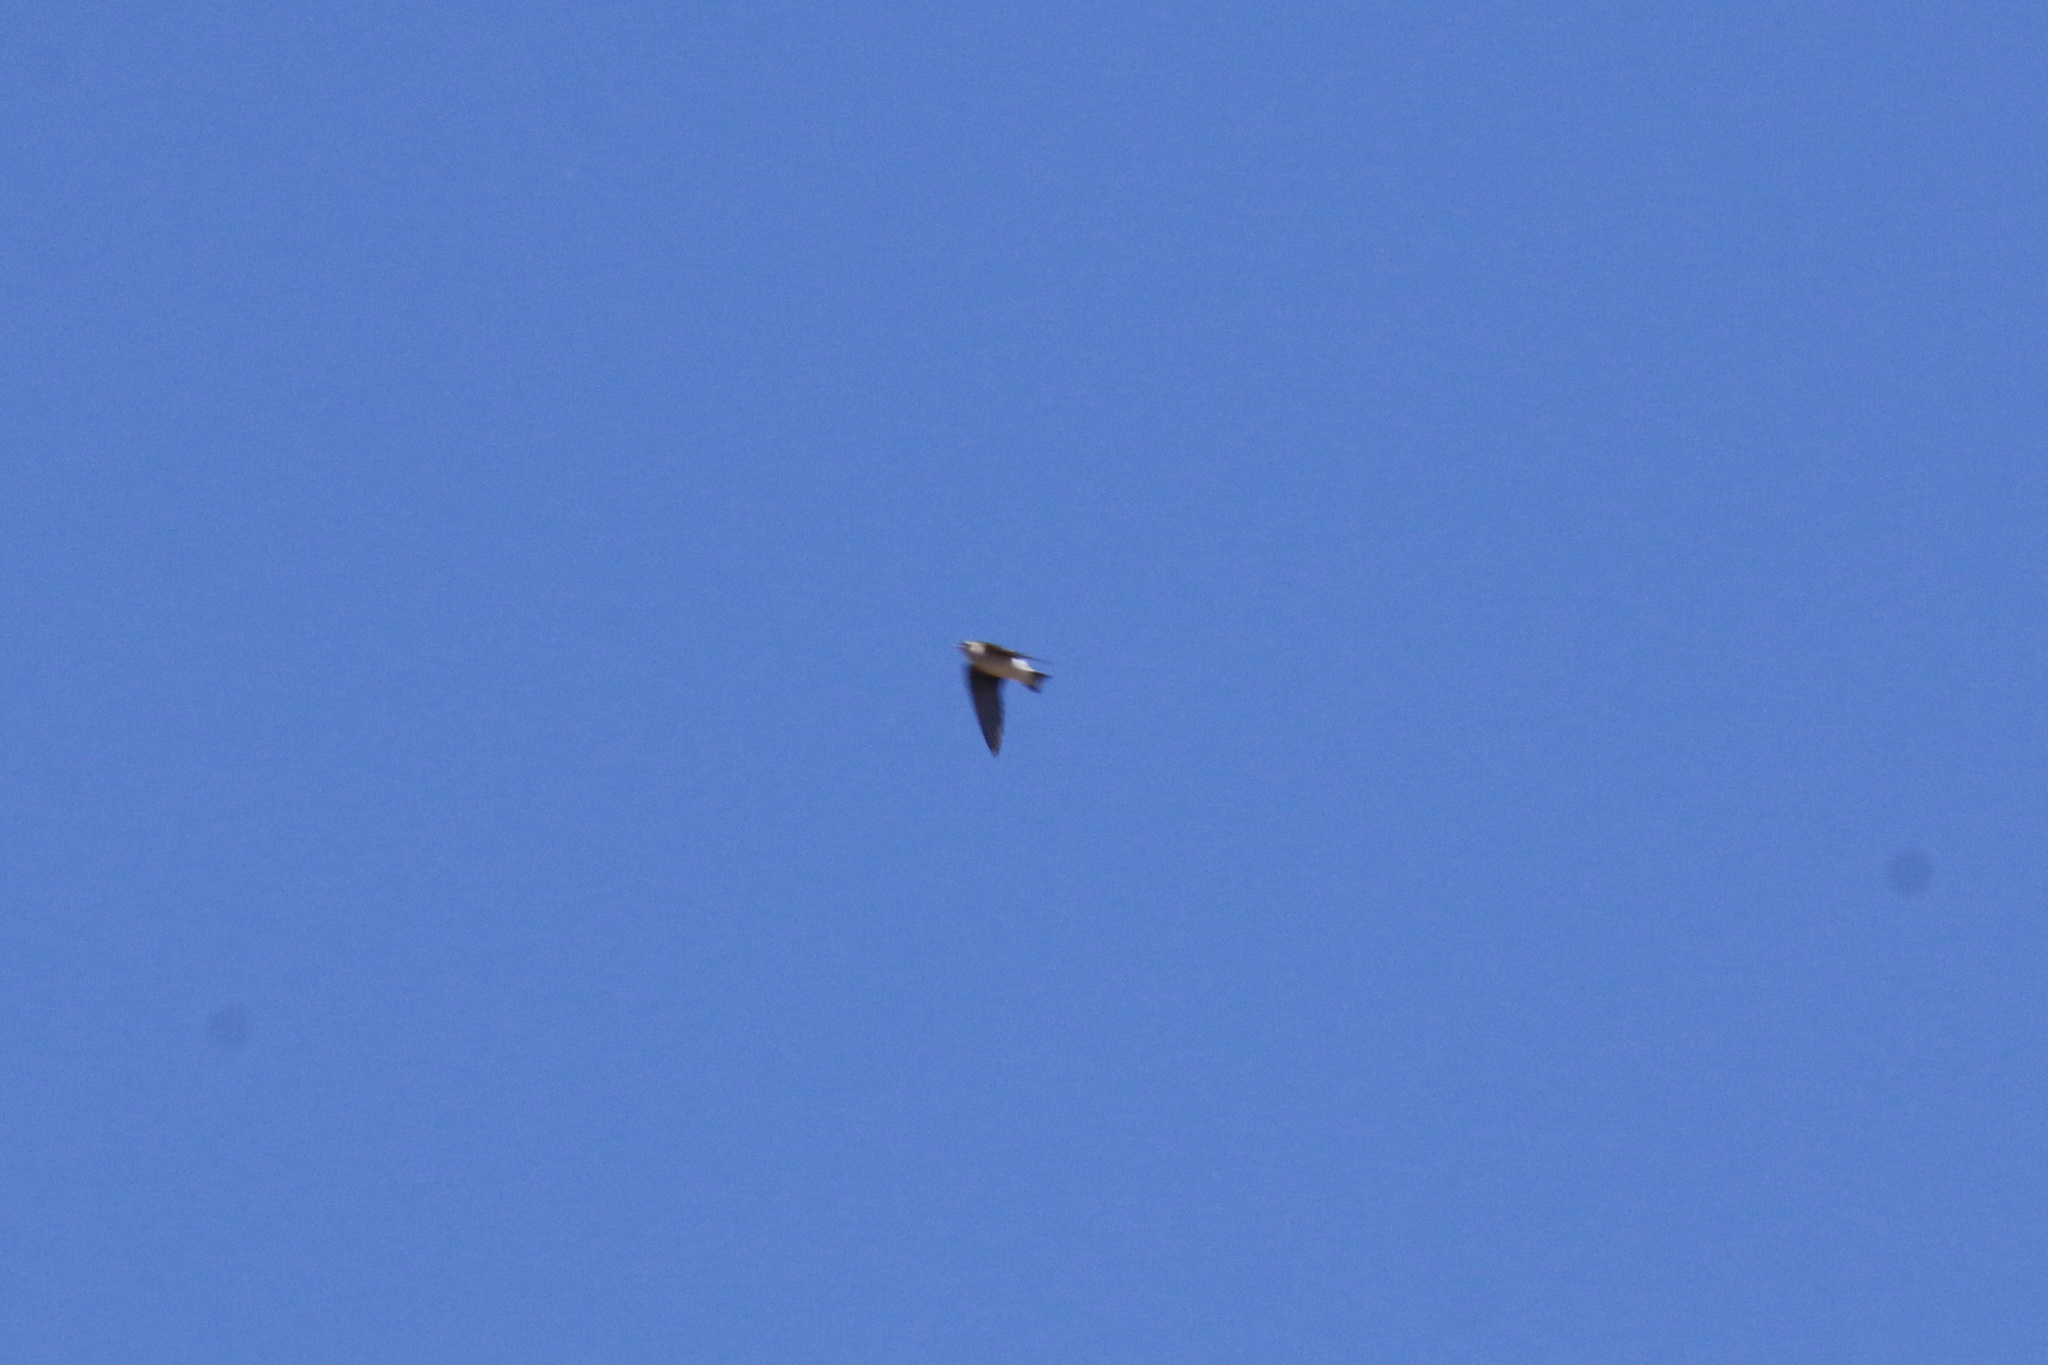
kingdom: Animalia
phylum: Chordata
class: Aves
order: Passeriformes
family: Hirundinidae
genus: Tachycineta
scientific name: Tachycineta thalassina
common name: Violet-green swallow
